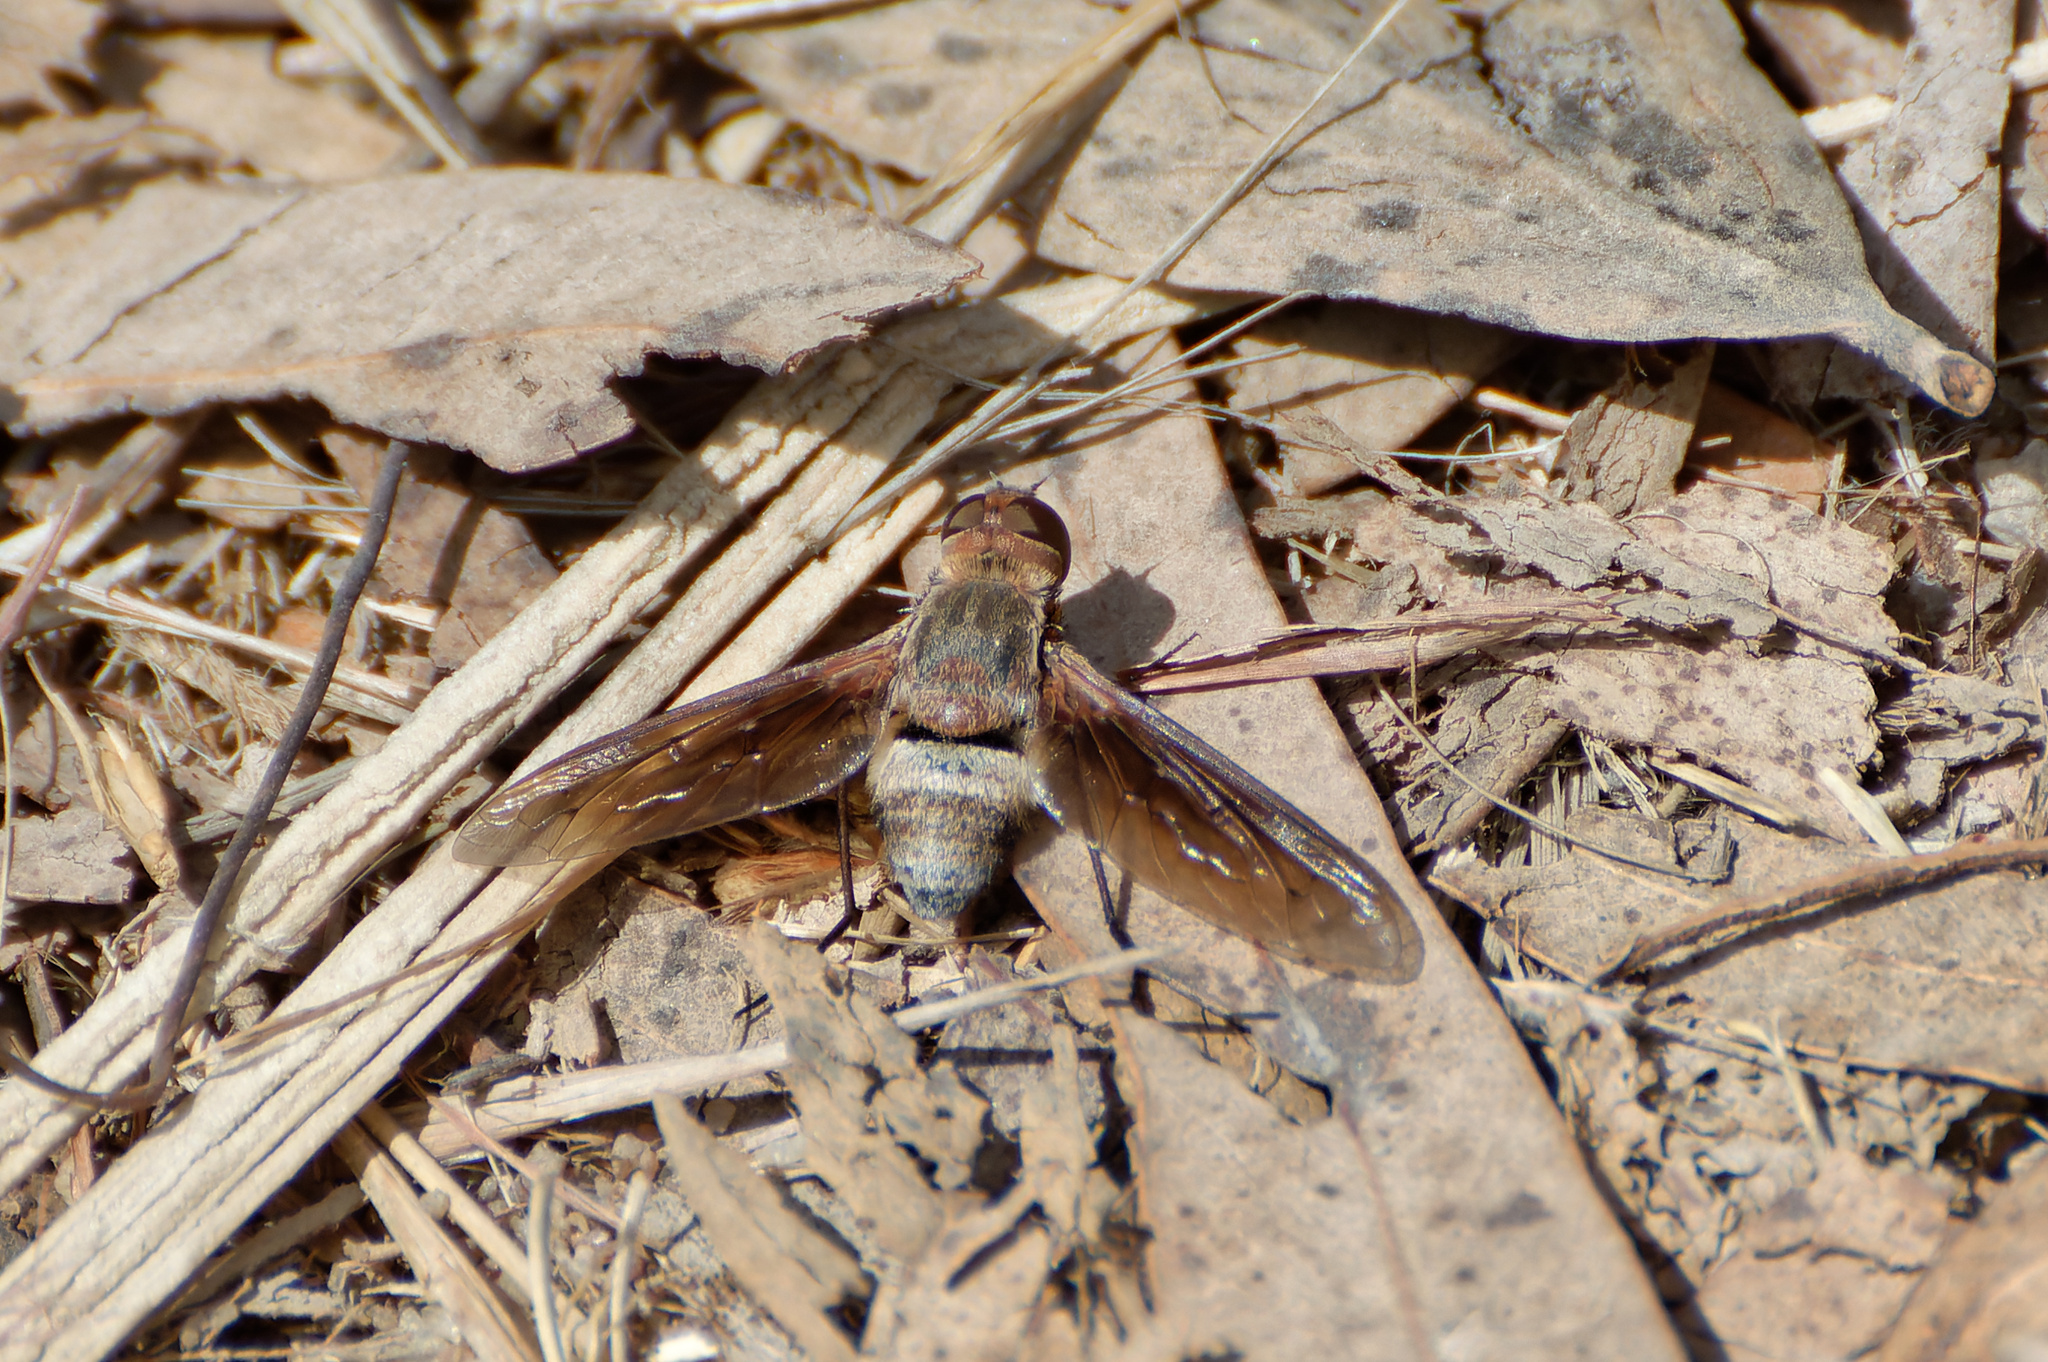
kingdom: Animalia
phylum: Arthropoda
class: Insecta
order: Diptera
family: Bombyliidae
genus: Ligyra
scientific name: Ligyra tenebrosa
